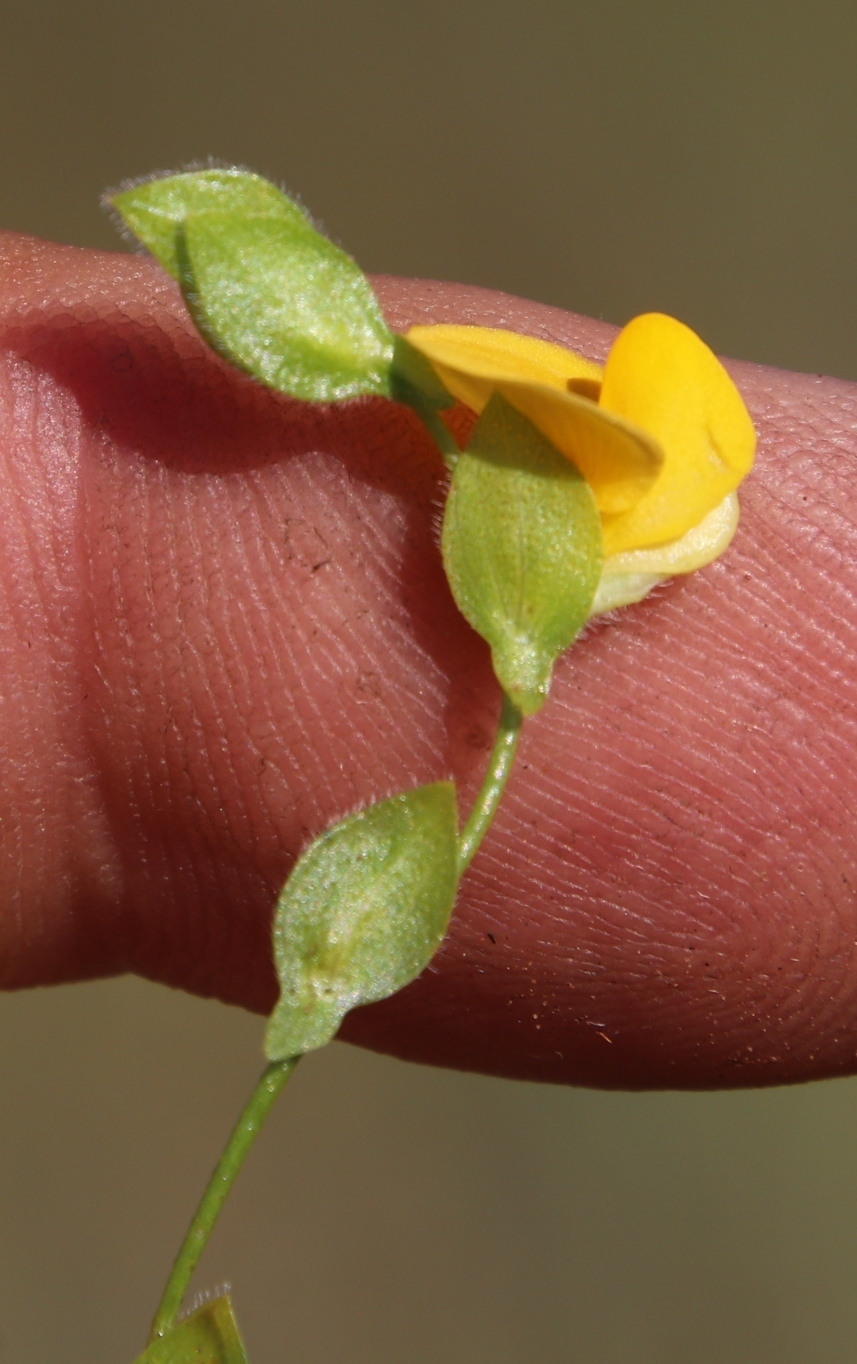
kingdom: Plantae
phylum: Tracheophyta
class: Magnoliopsida
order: Fabales
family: Fabaceae
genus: Zornia
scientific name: Zornia capensis
